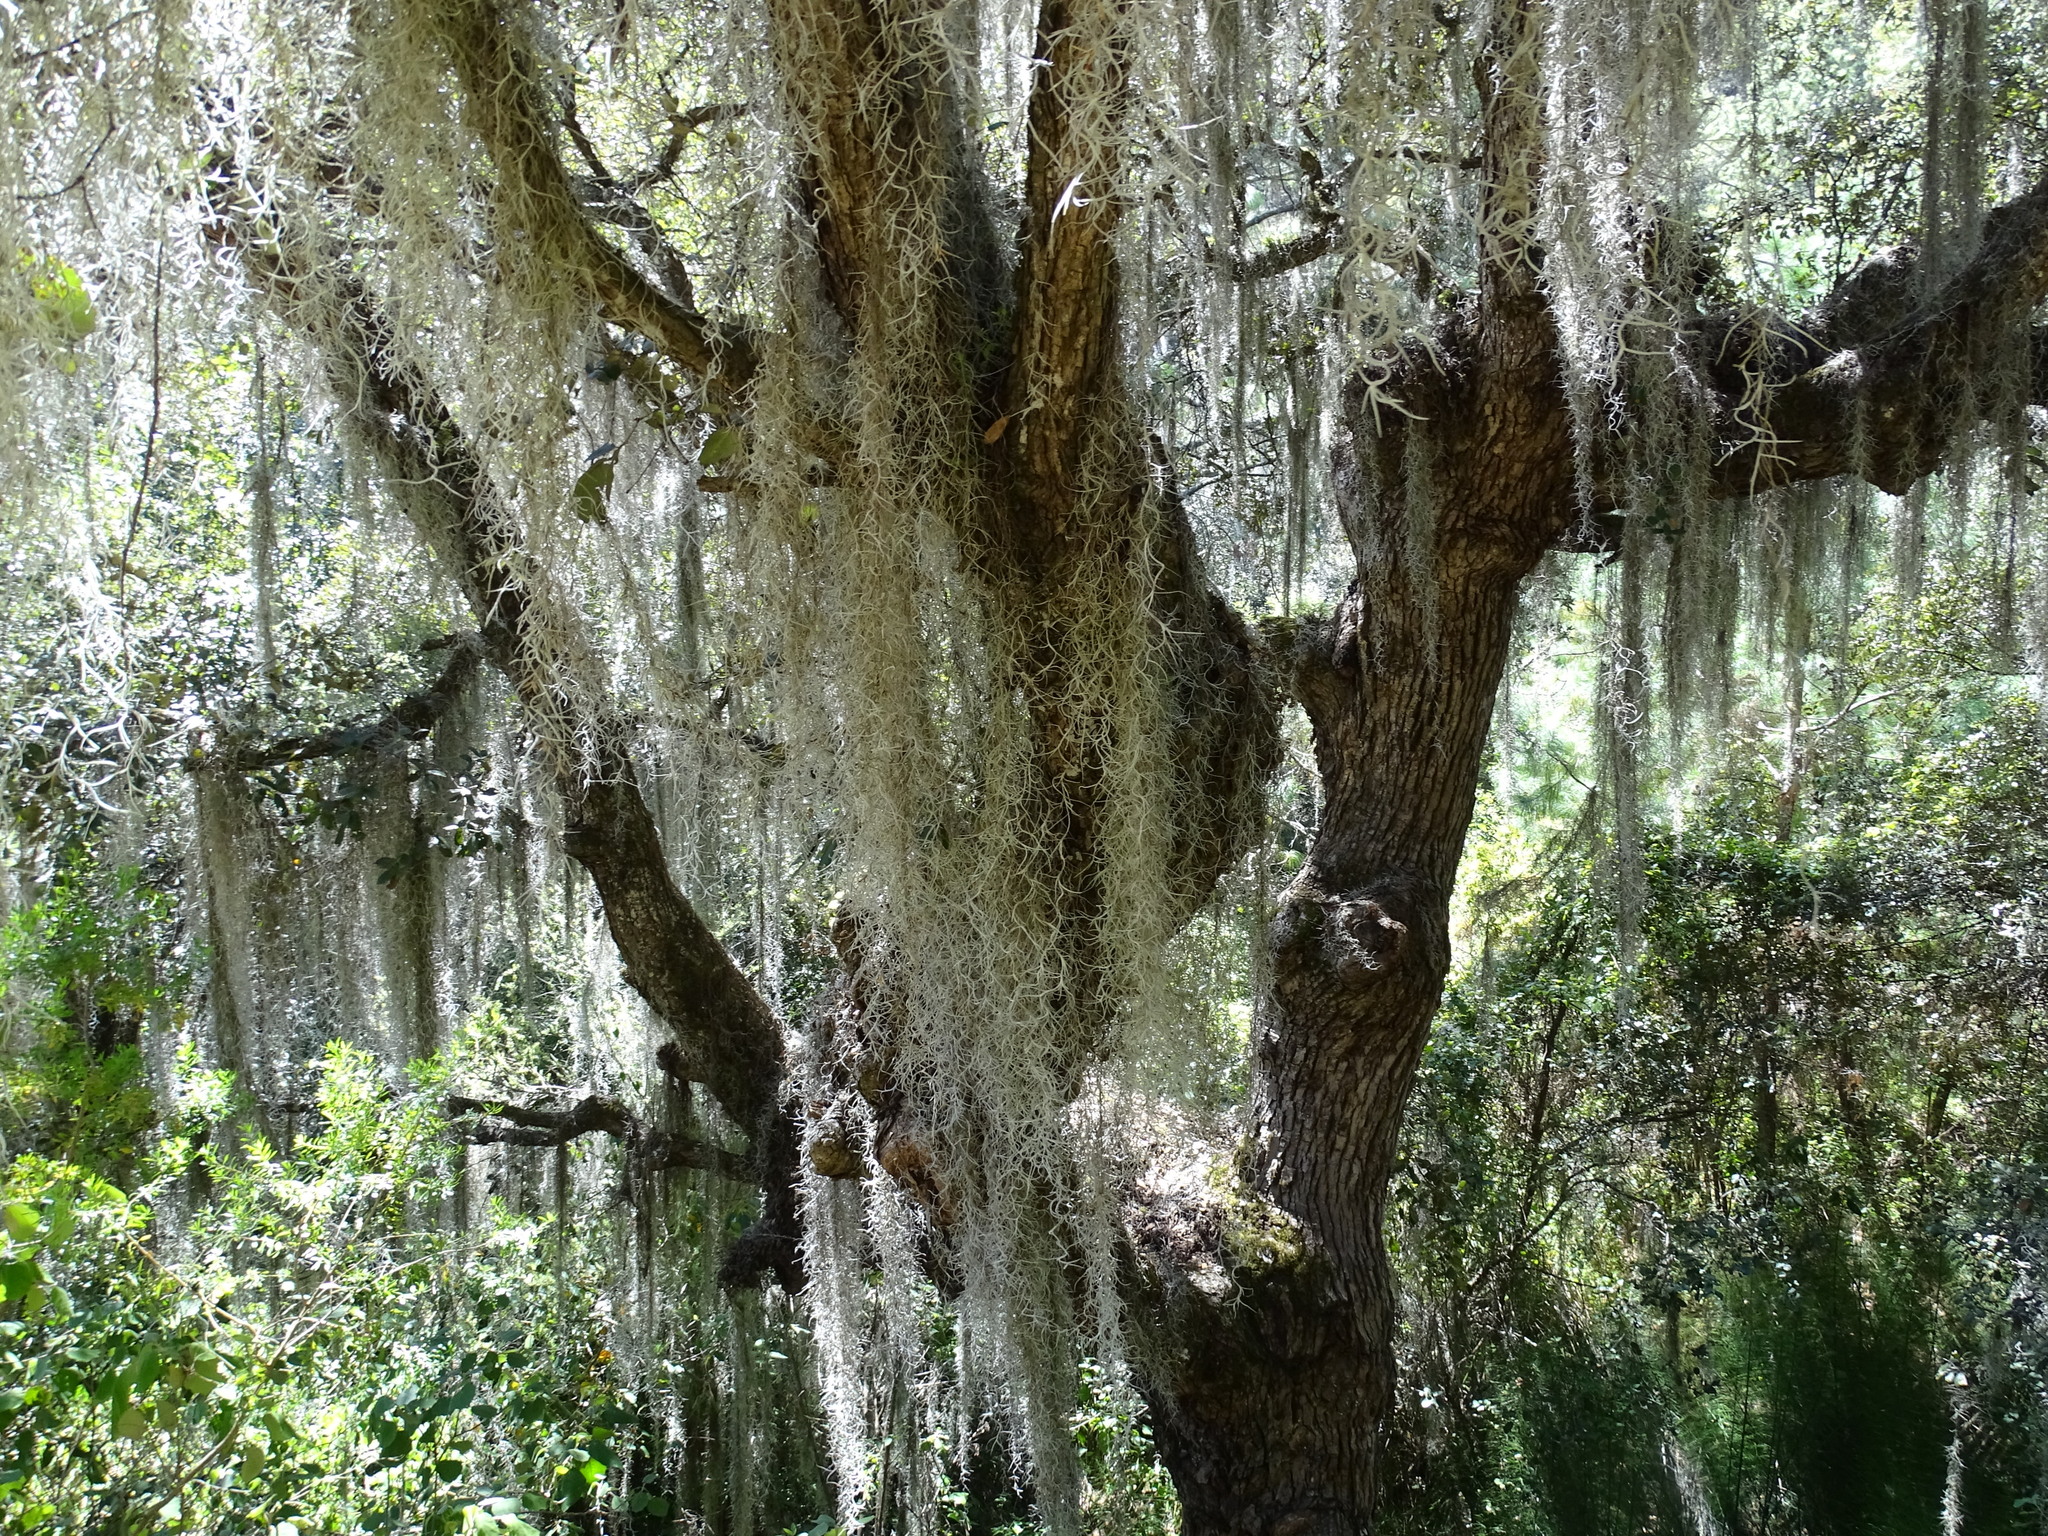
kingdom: Plantae
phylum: Tracheophyta
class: Liliopsida
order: Poales
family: Bromeliaceae
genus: Tillandsia
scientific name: Tillandsia usneoides
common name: Spanish moss
